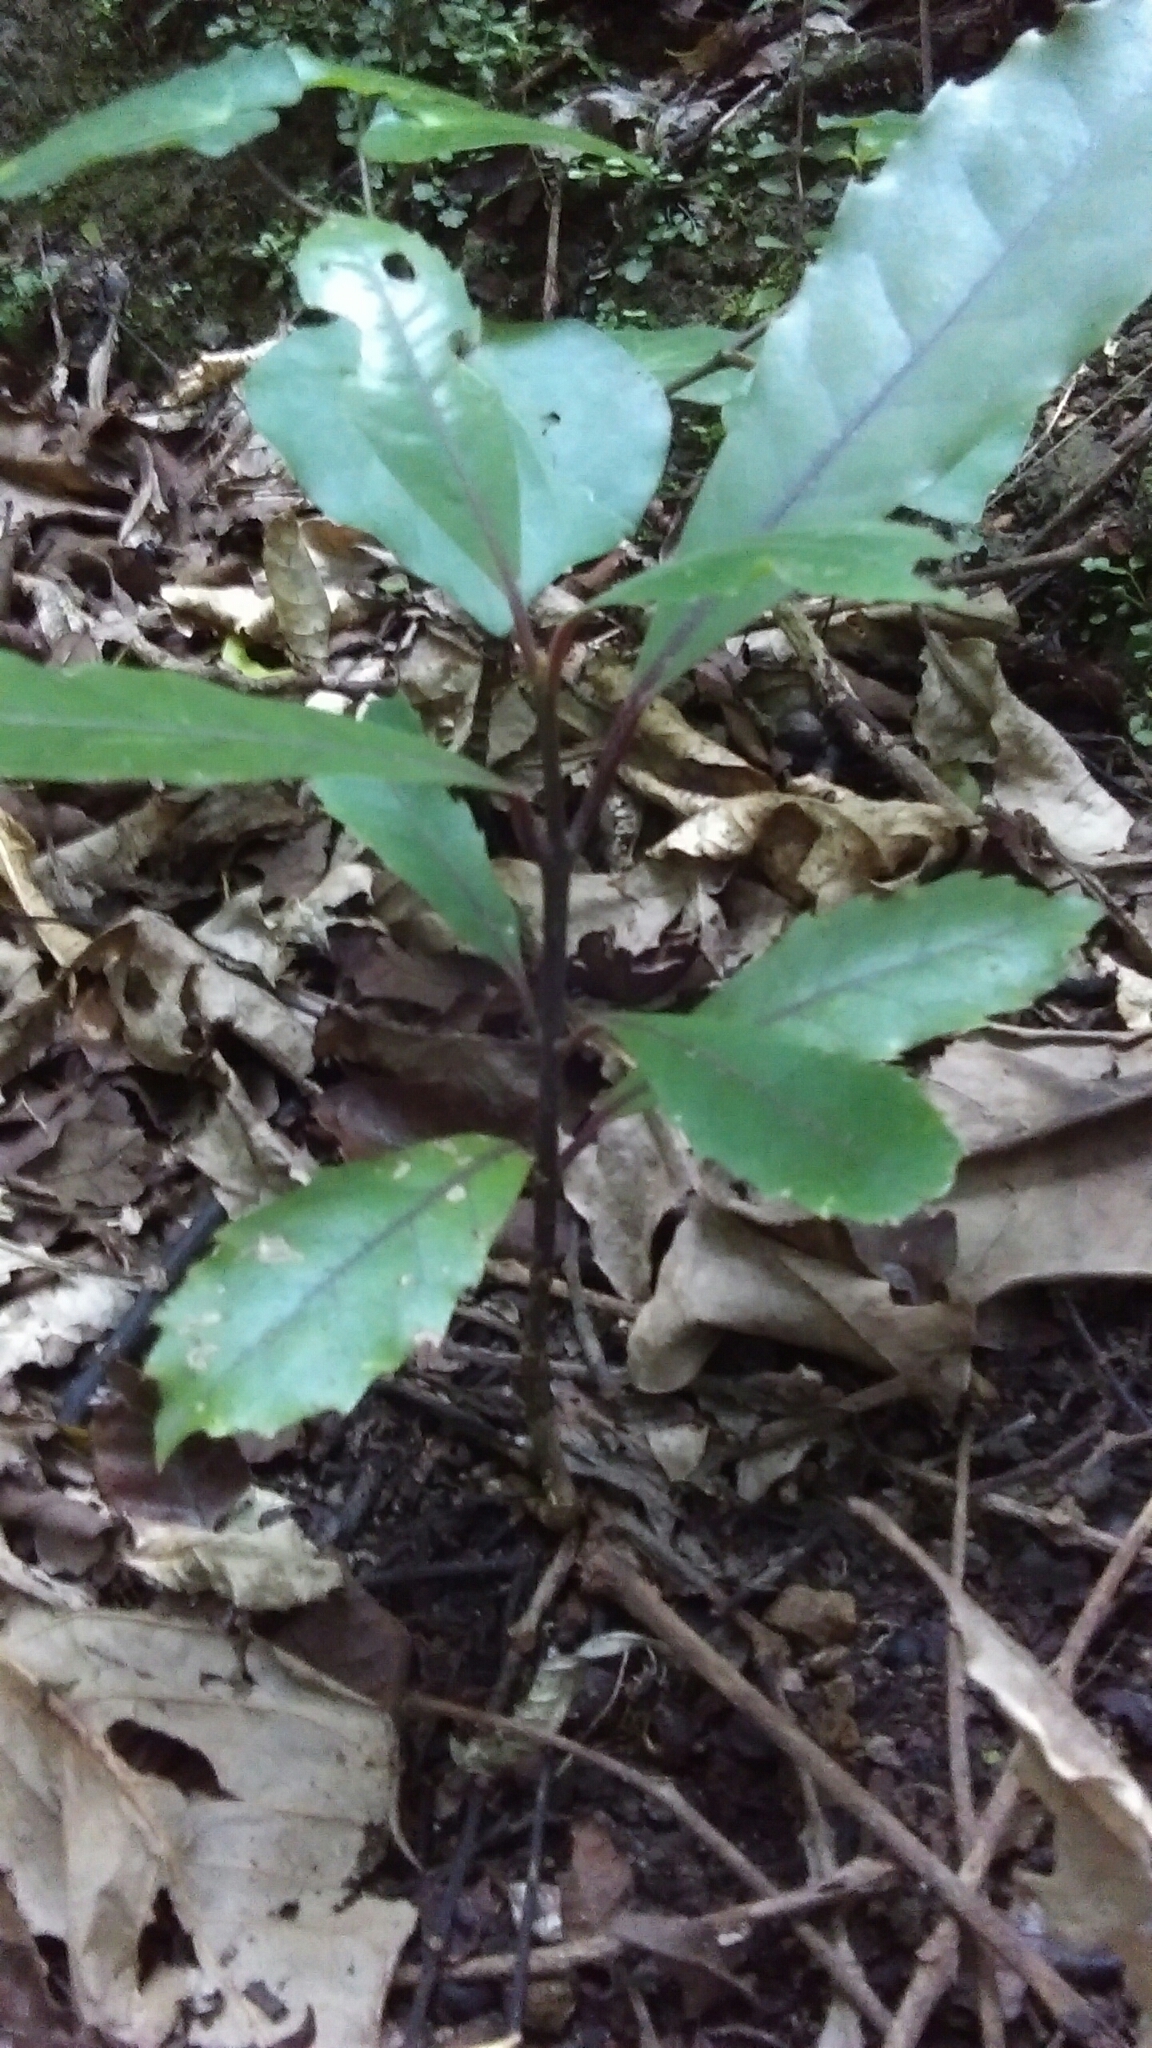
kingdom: Plantae
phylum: Tracheophyta
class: Magnoliopsida
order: Laurales
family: Monimiaceae
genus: Hedycarya
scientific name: Hedycarya arborea
